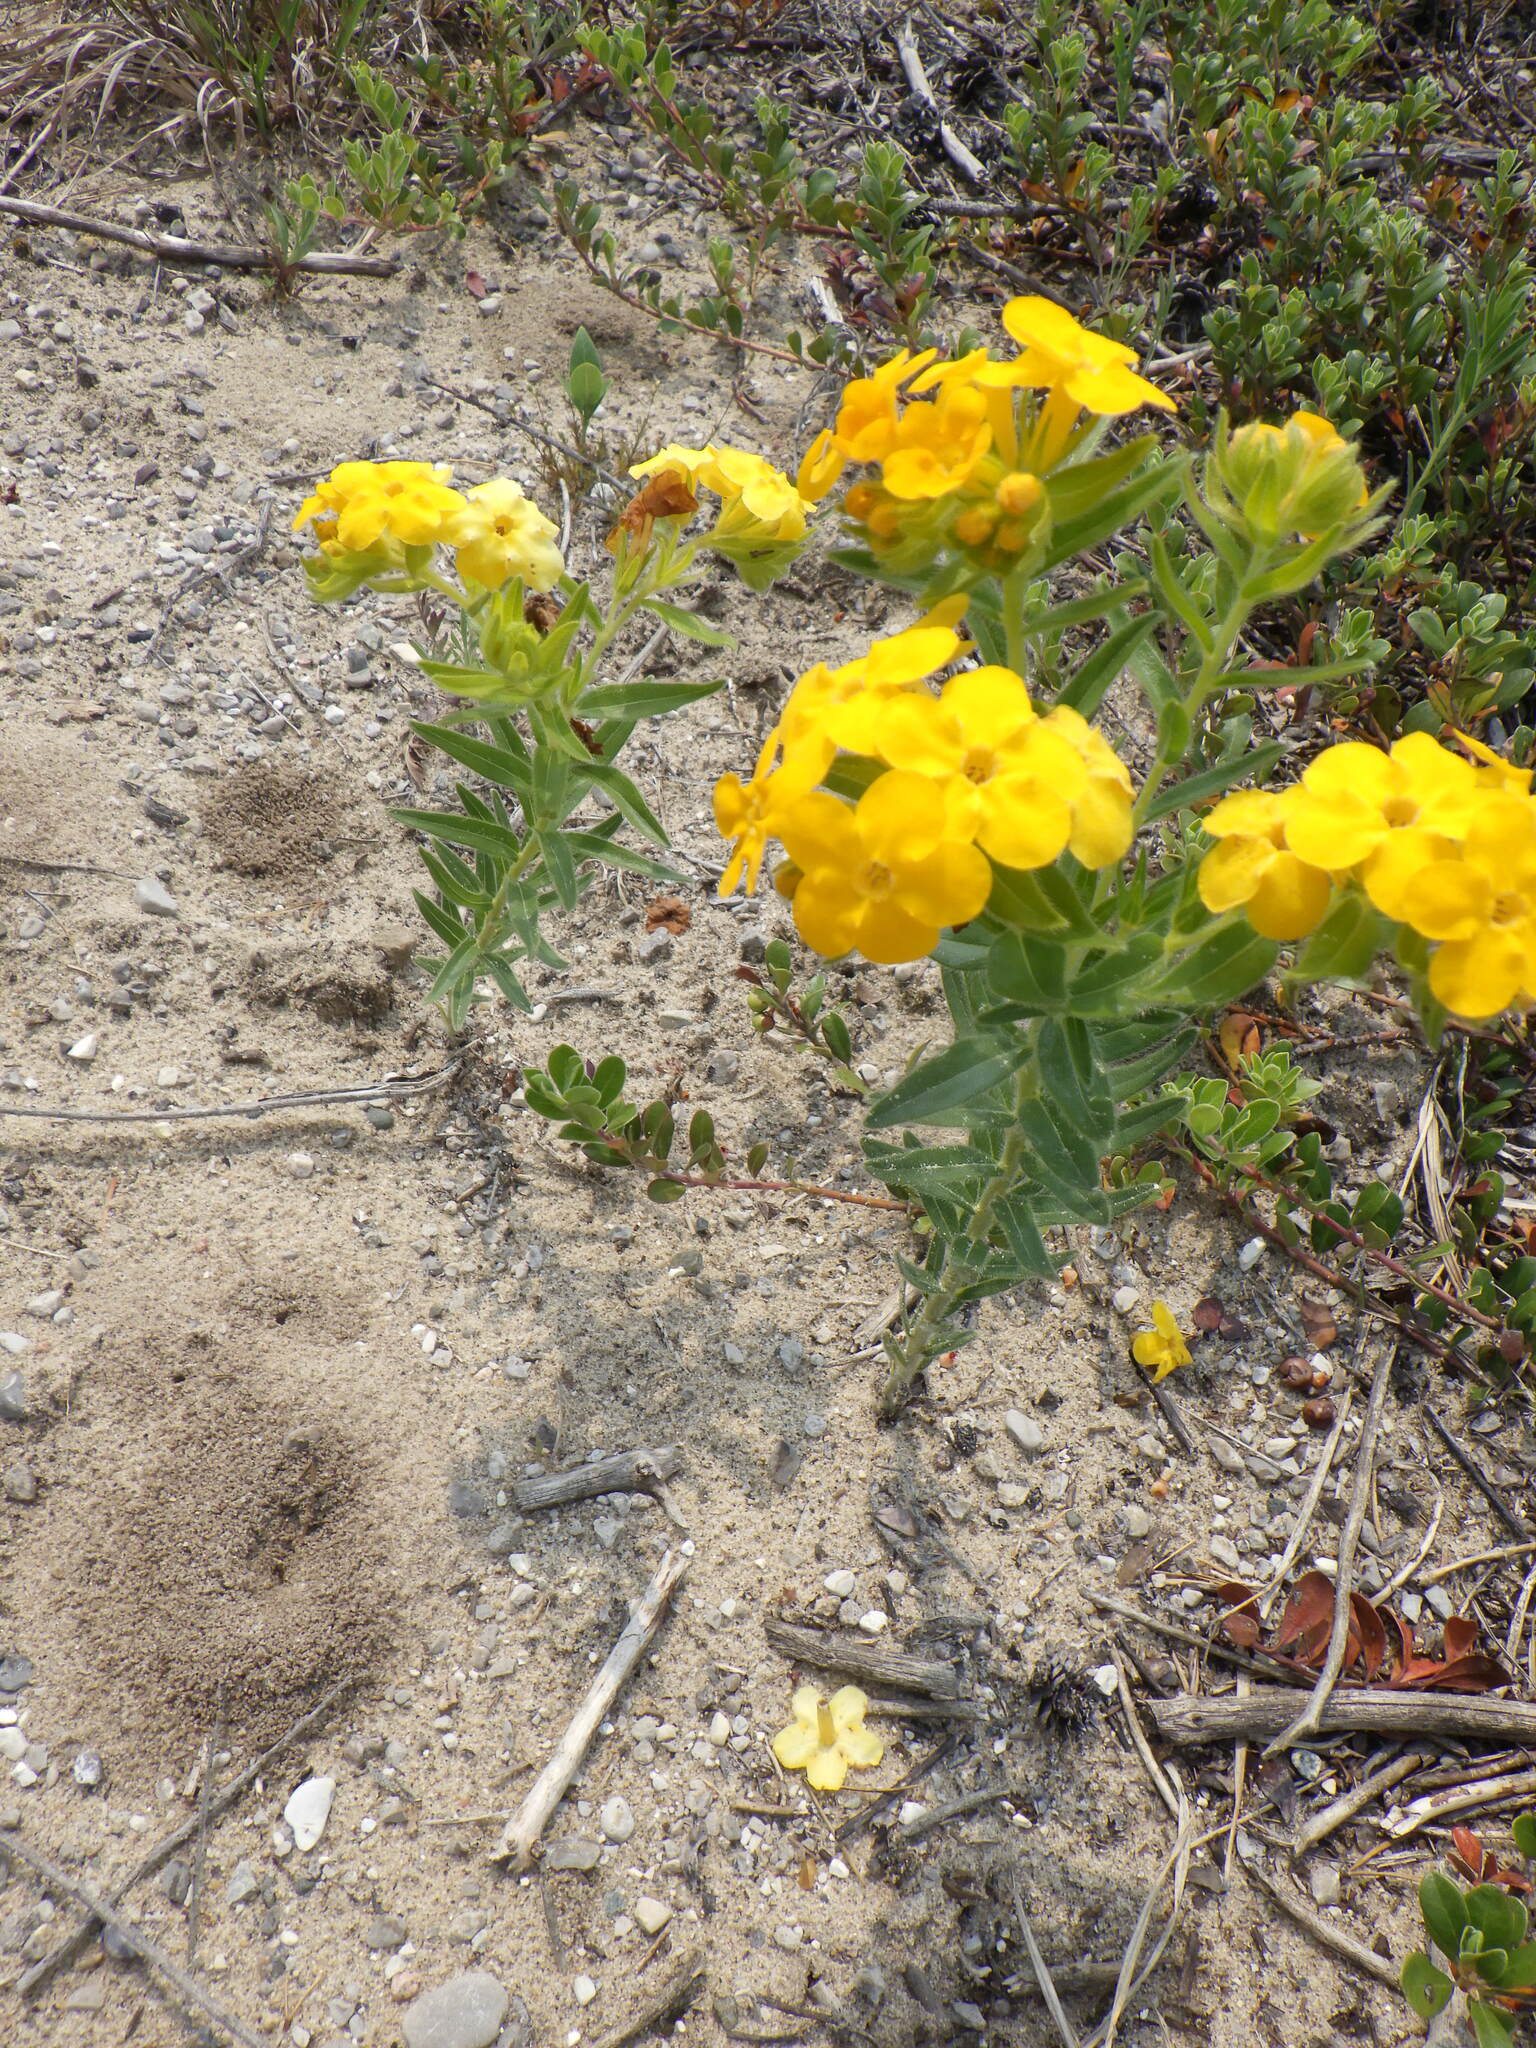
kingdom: Plantae
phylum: Tracheophyta
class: Magnoliopsida
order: Boraginales
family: Boraginaceae
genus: Lithospermum
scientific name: Lithospermum caroliniense
